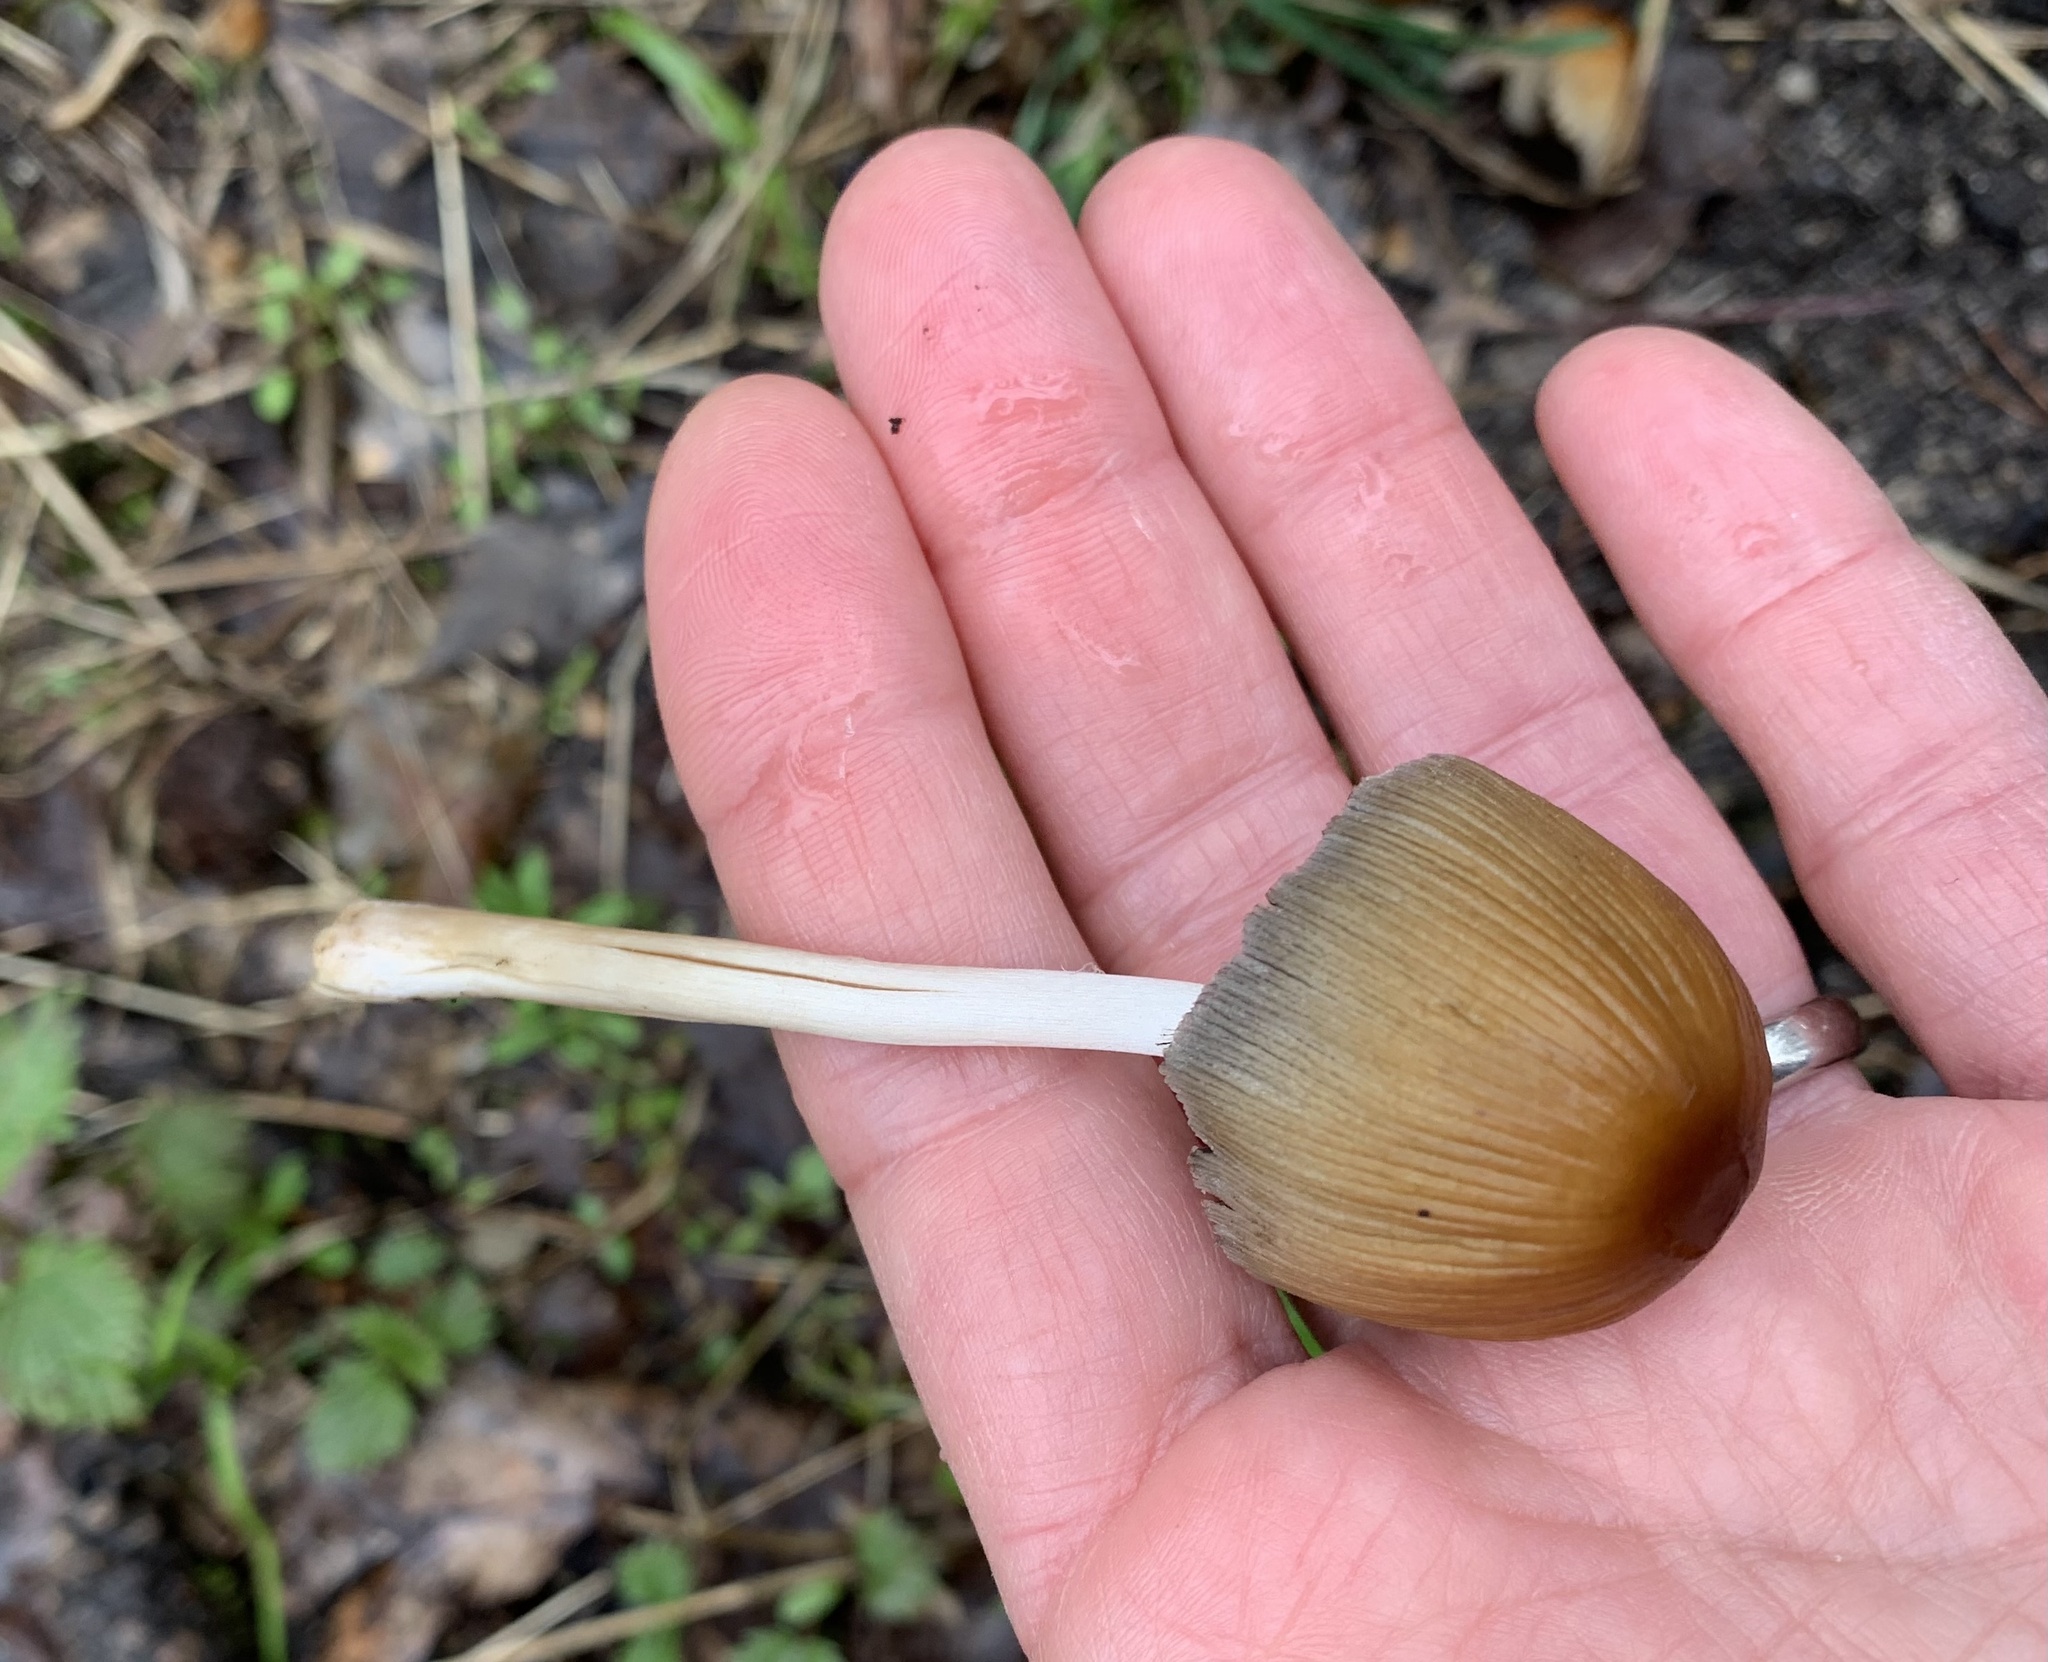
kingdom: Fungi
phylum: Basidiomycota
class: Agaricomycetes
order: Agaricales
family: Psathyrellaceae
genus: Coprinellus
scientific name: Coprinellus micaceus
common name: Glistening ink-cap
